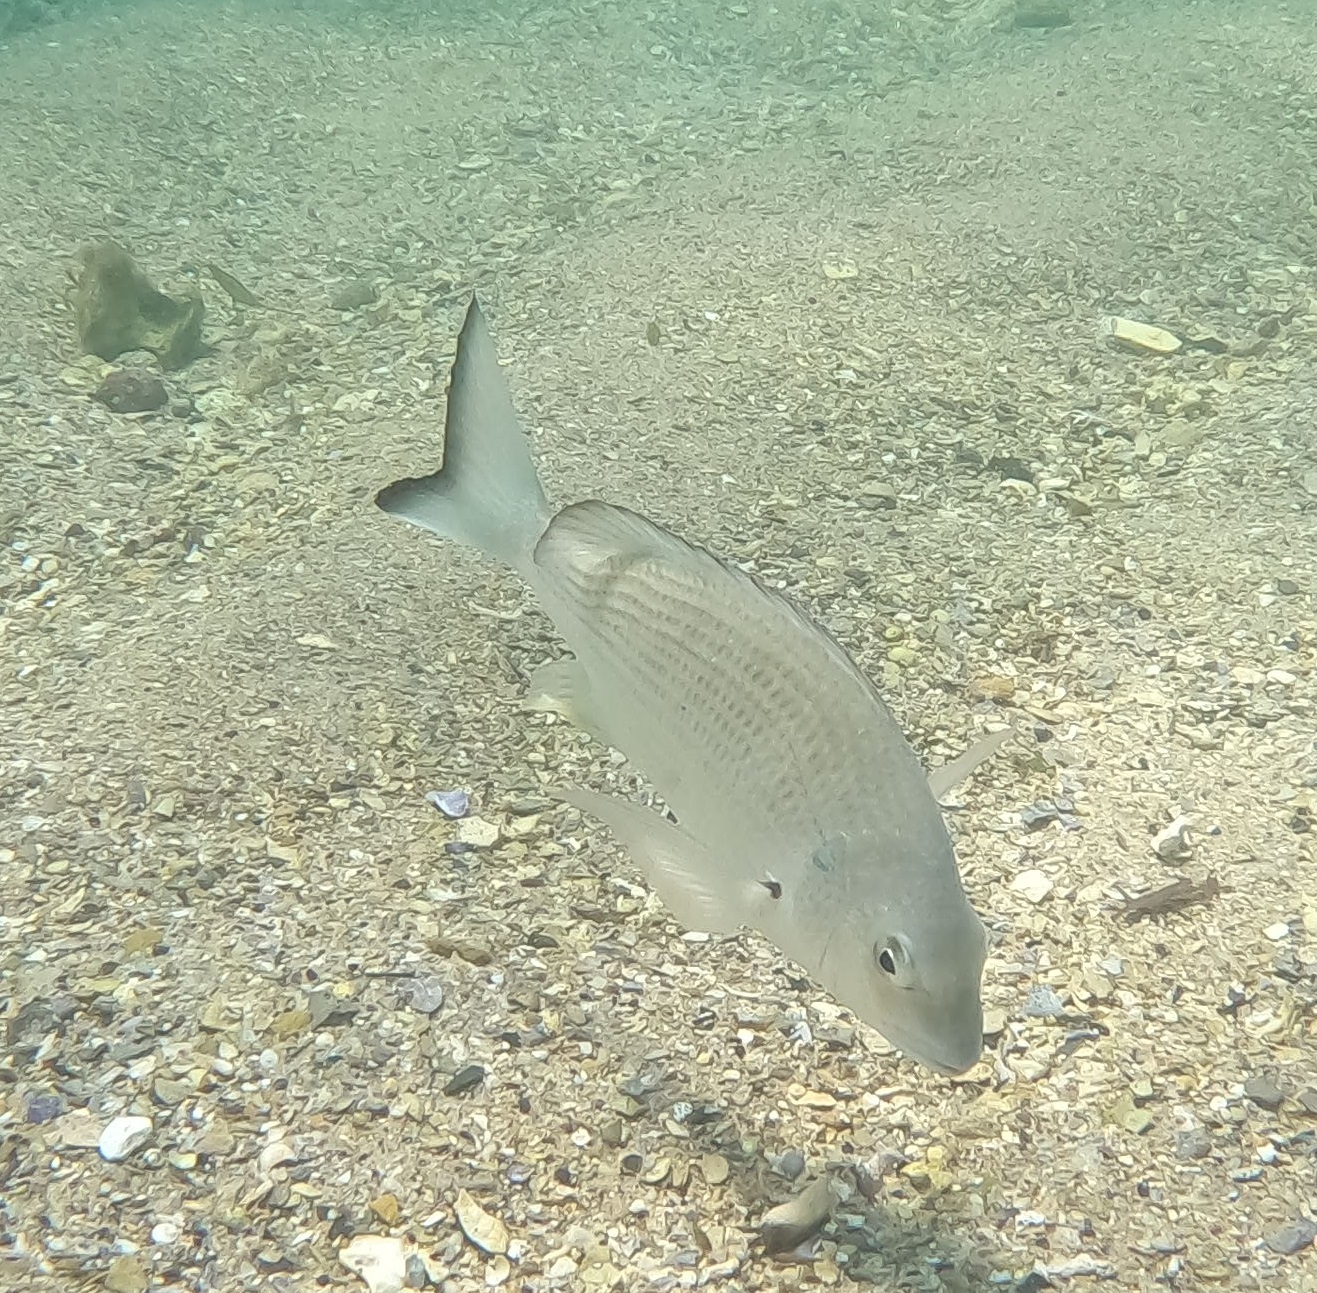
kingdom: Animalia
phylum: Chordata
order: Perciformes
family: Sparidae
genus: Acanthopagrus
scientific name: Acanthopagrus australis
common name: Surf bream
